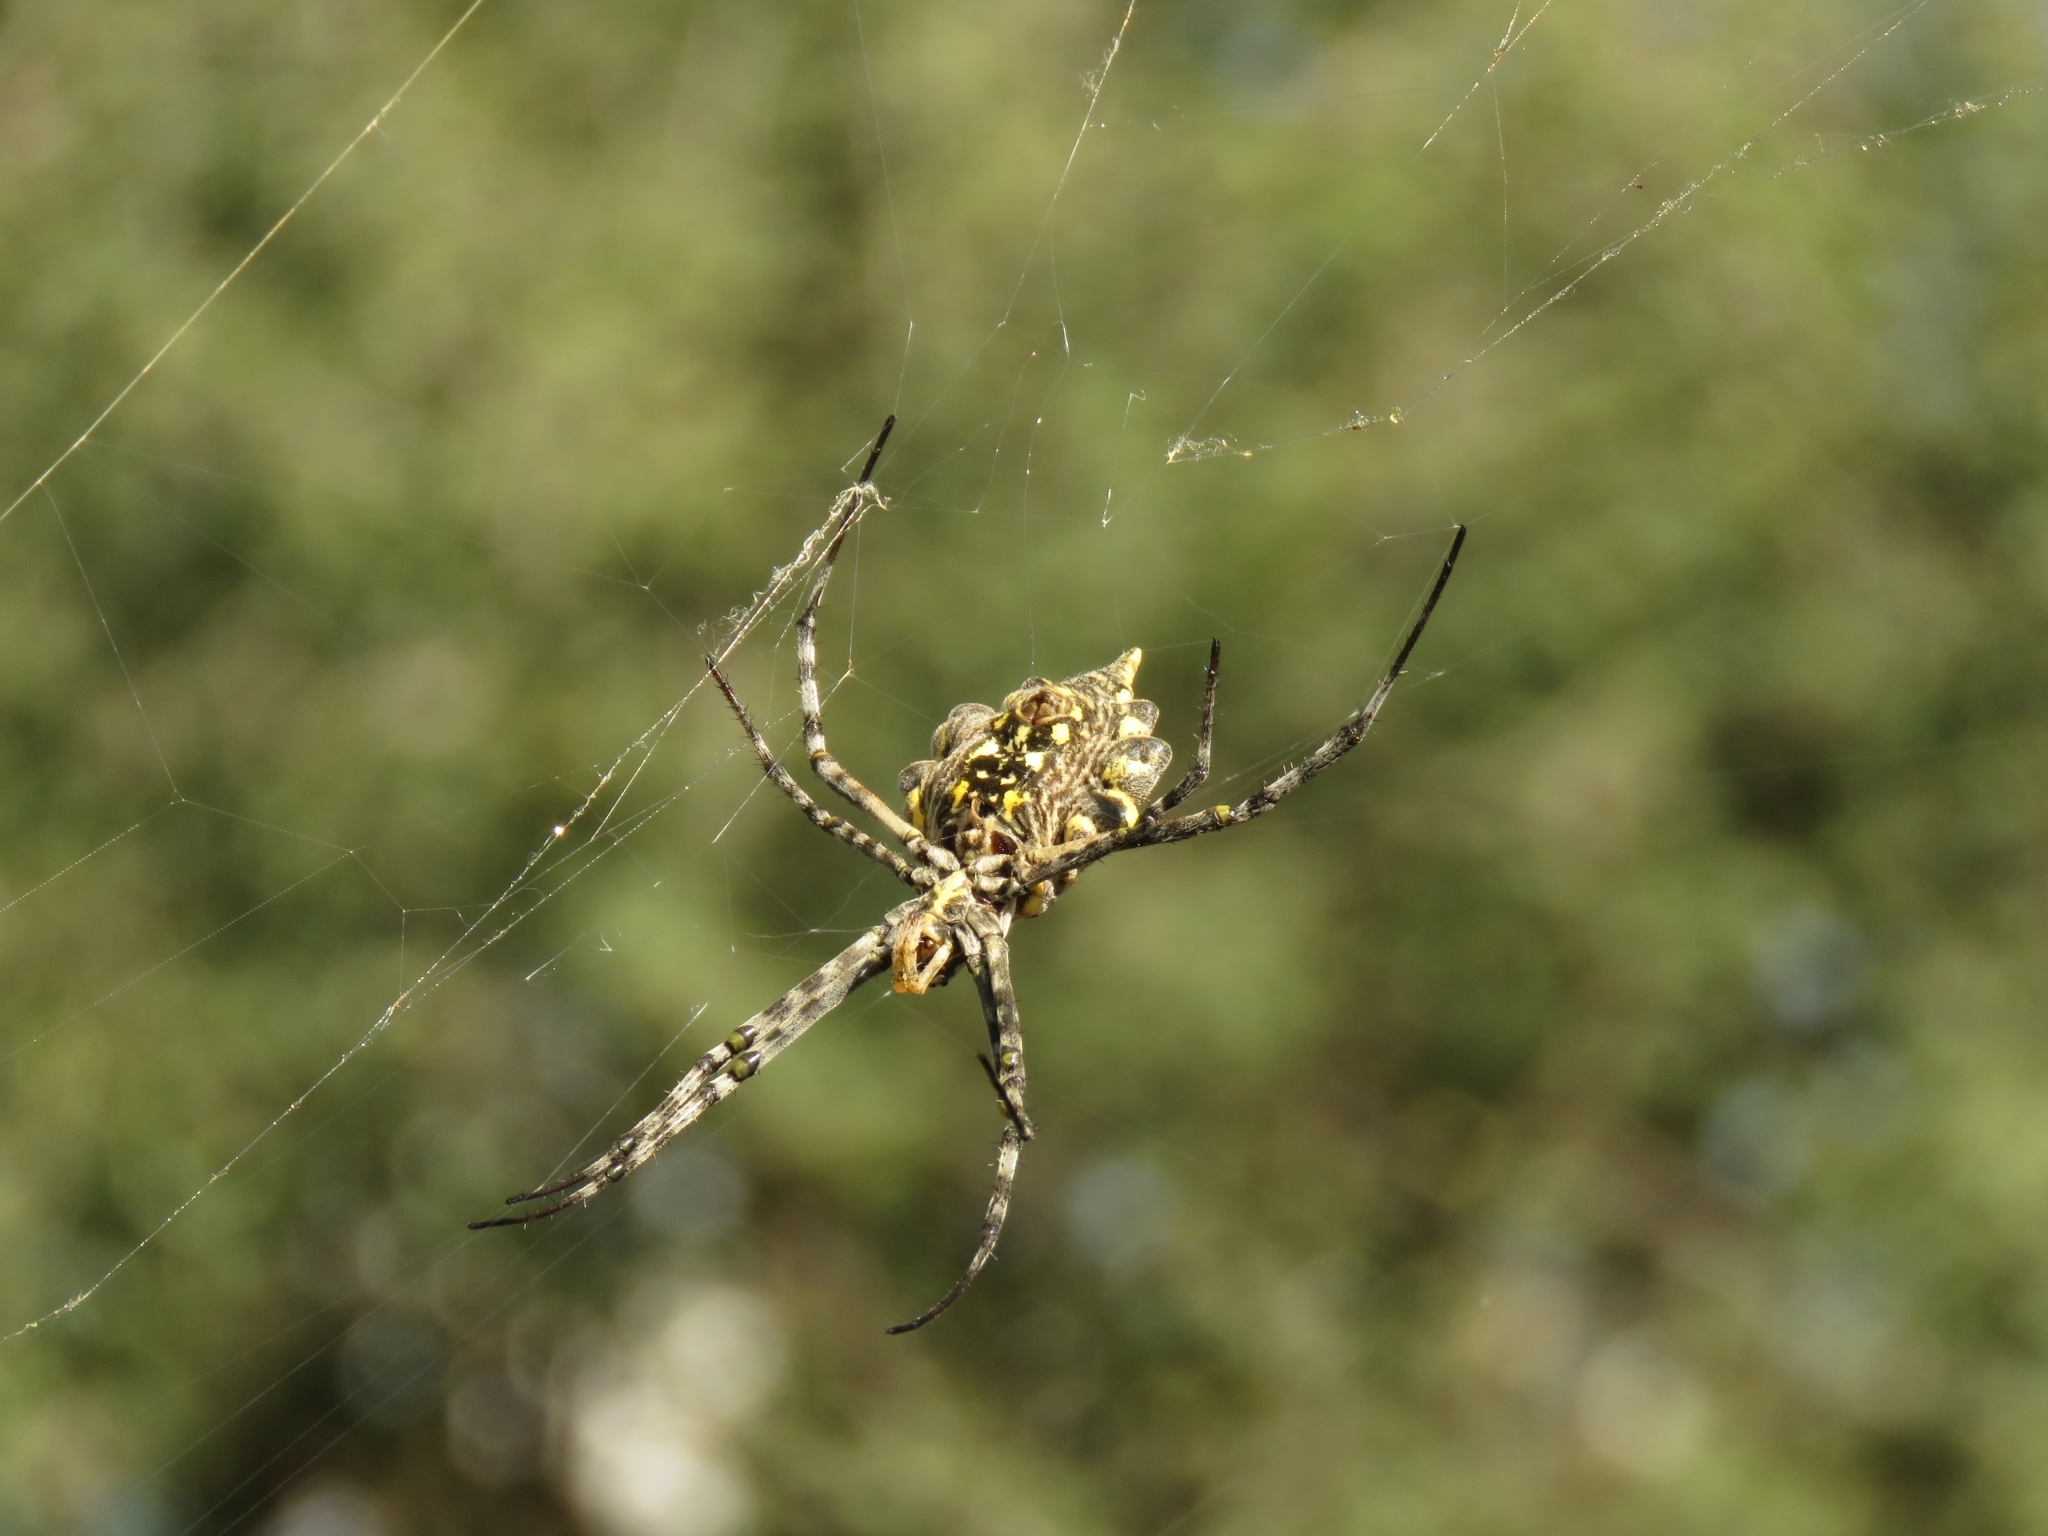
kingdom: Animalia
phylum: Arthropoda
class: Arachnida
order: Araneae
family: Araneidae
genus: Argiope
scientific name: Argiope australis
